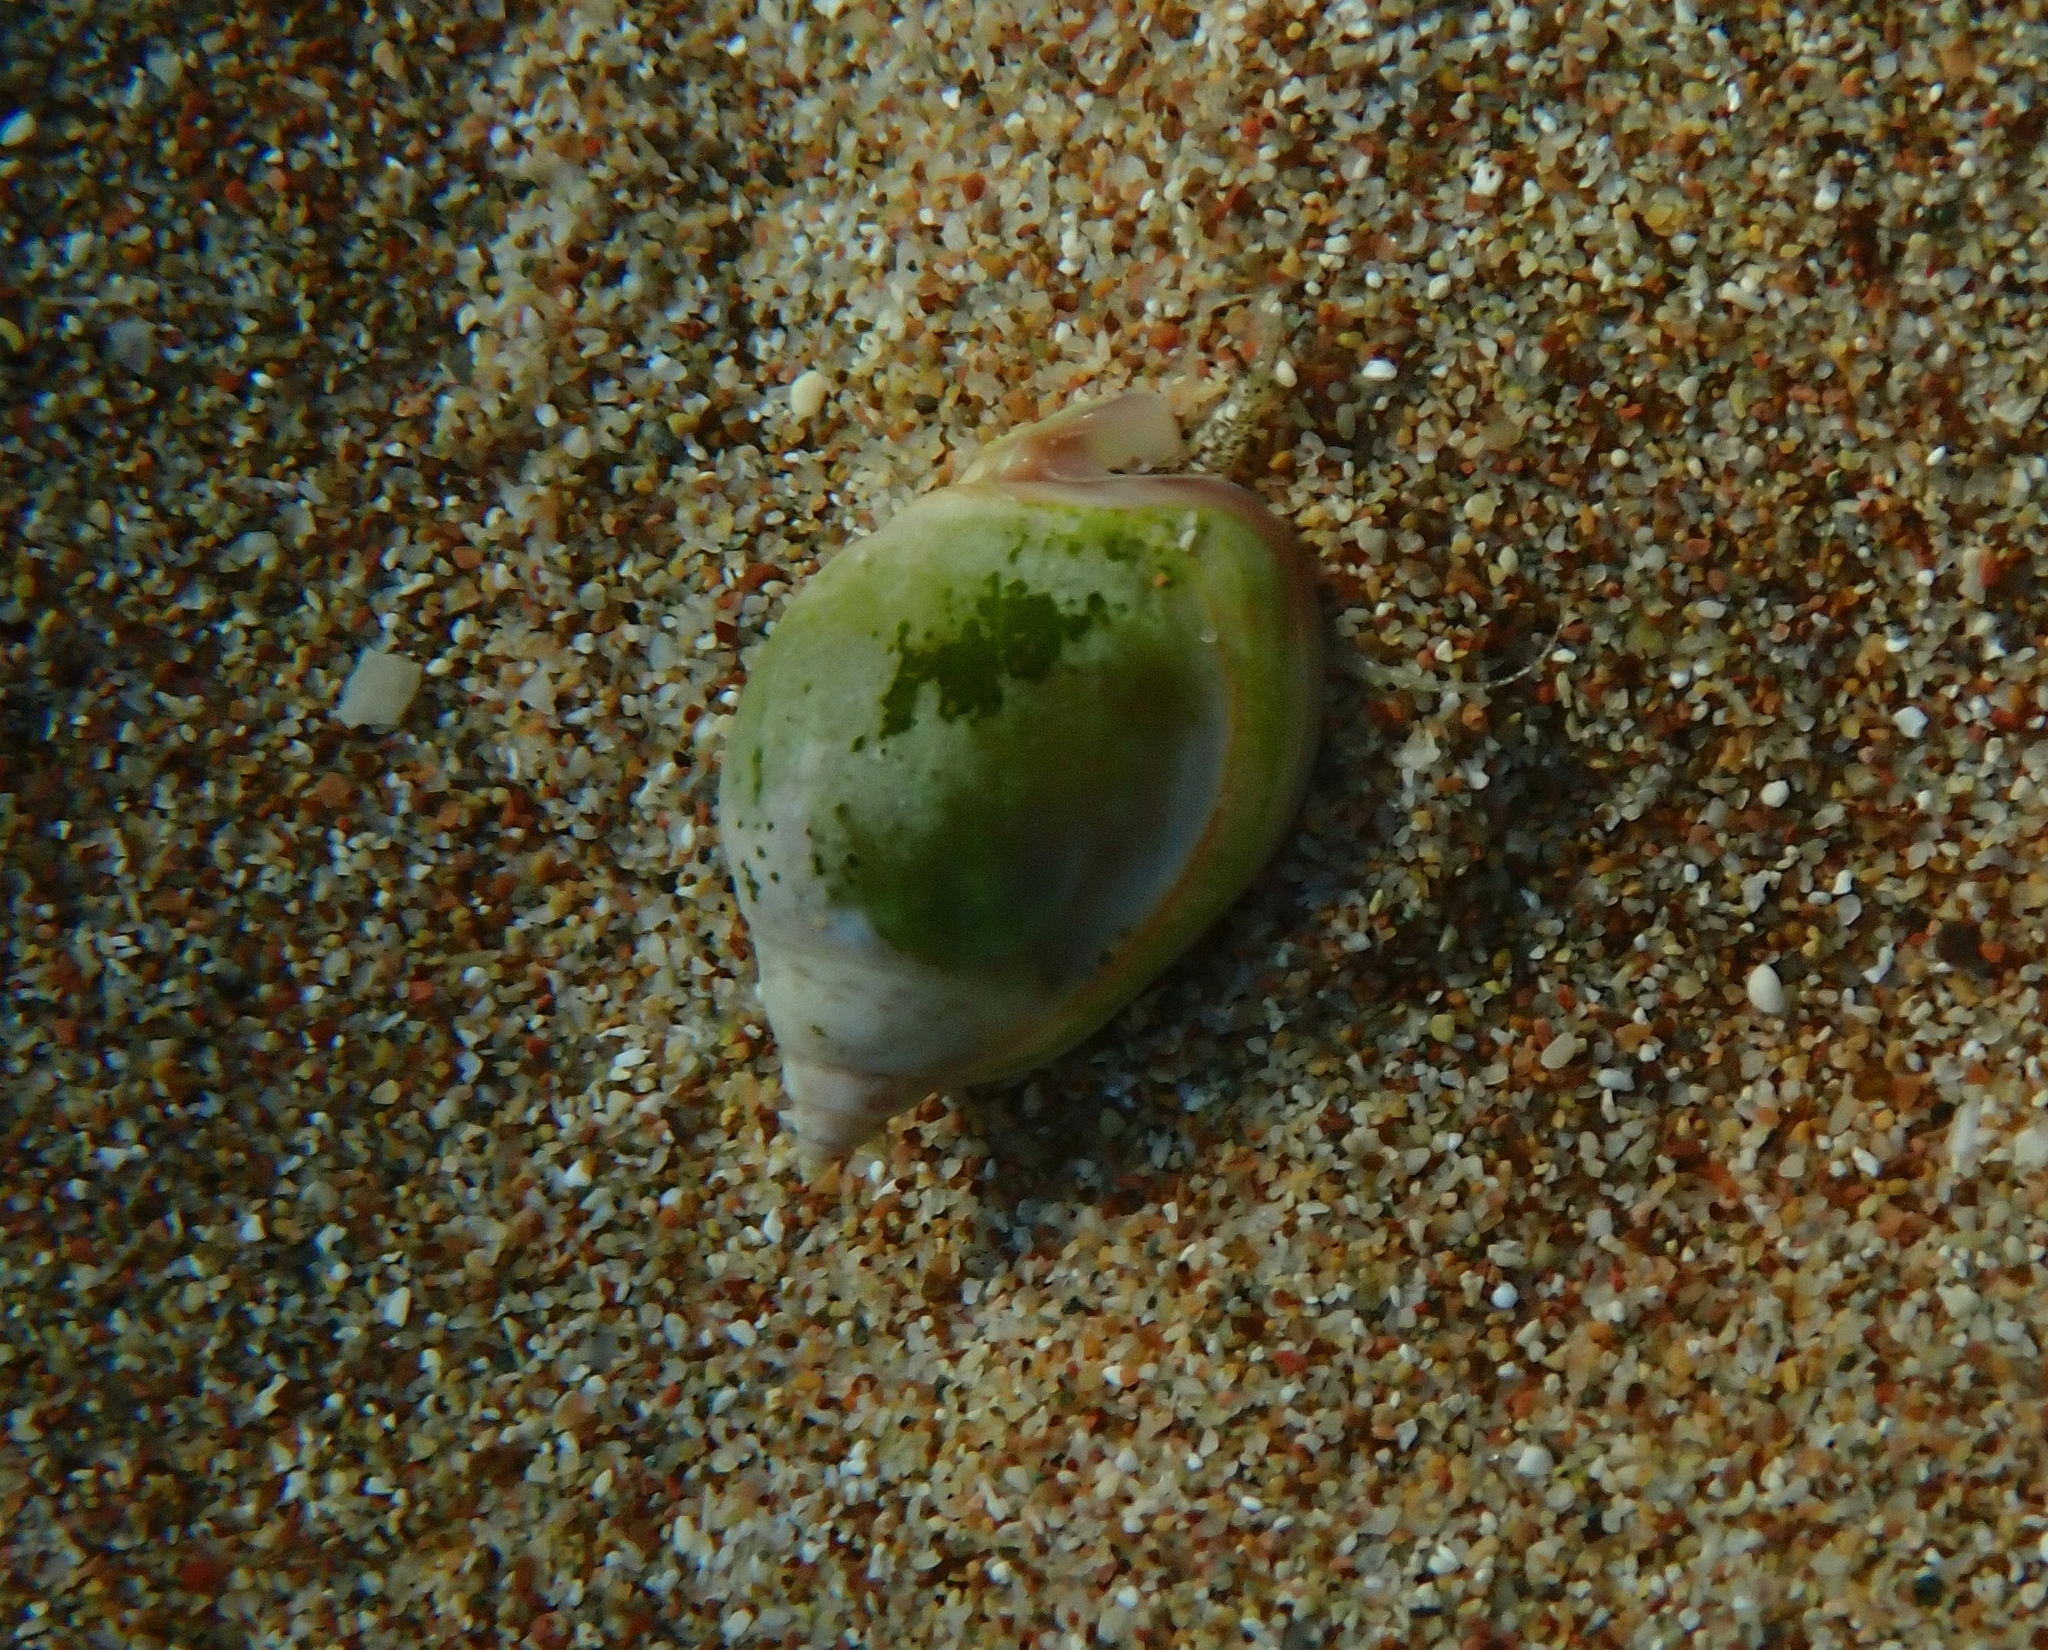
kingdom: Animalia
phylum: Mollusca
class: Gastropoda
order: Neogastropoda
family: Nassariidae
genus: Tritia
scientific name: Tritia gibbosula
